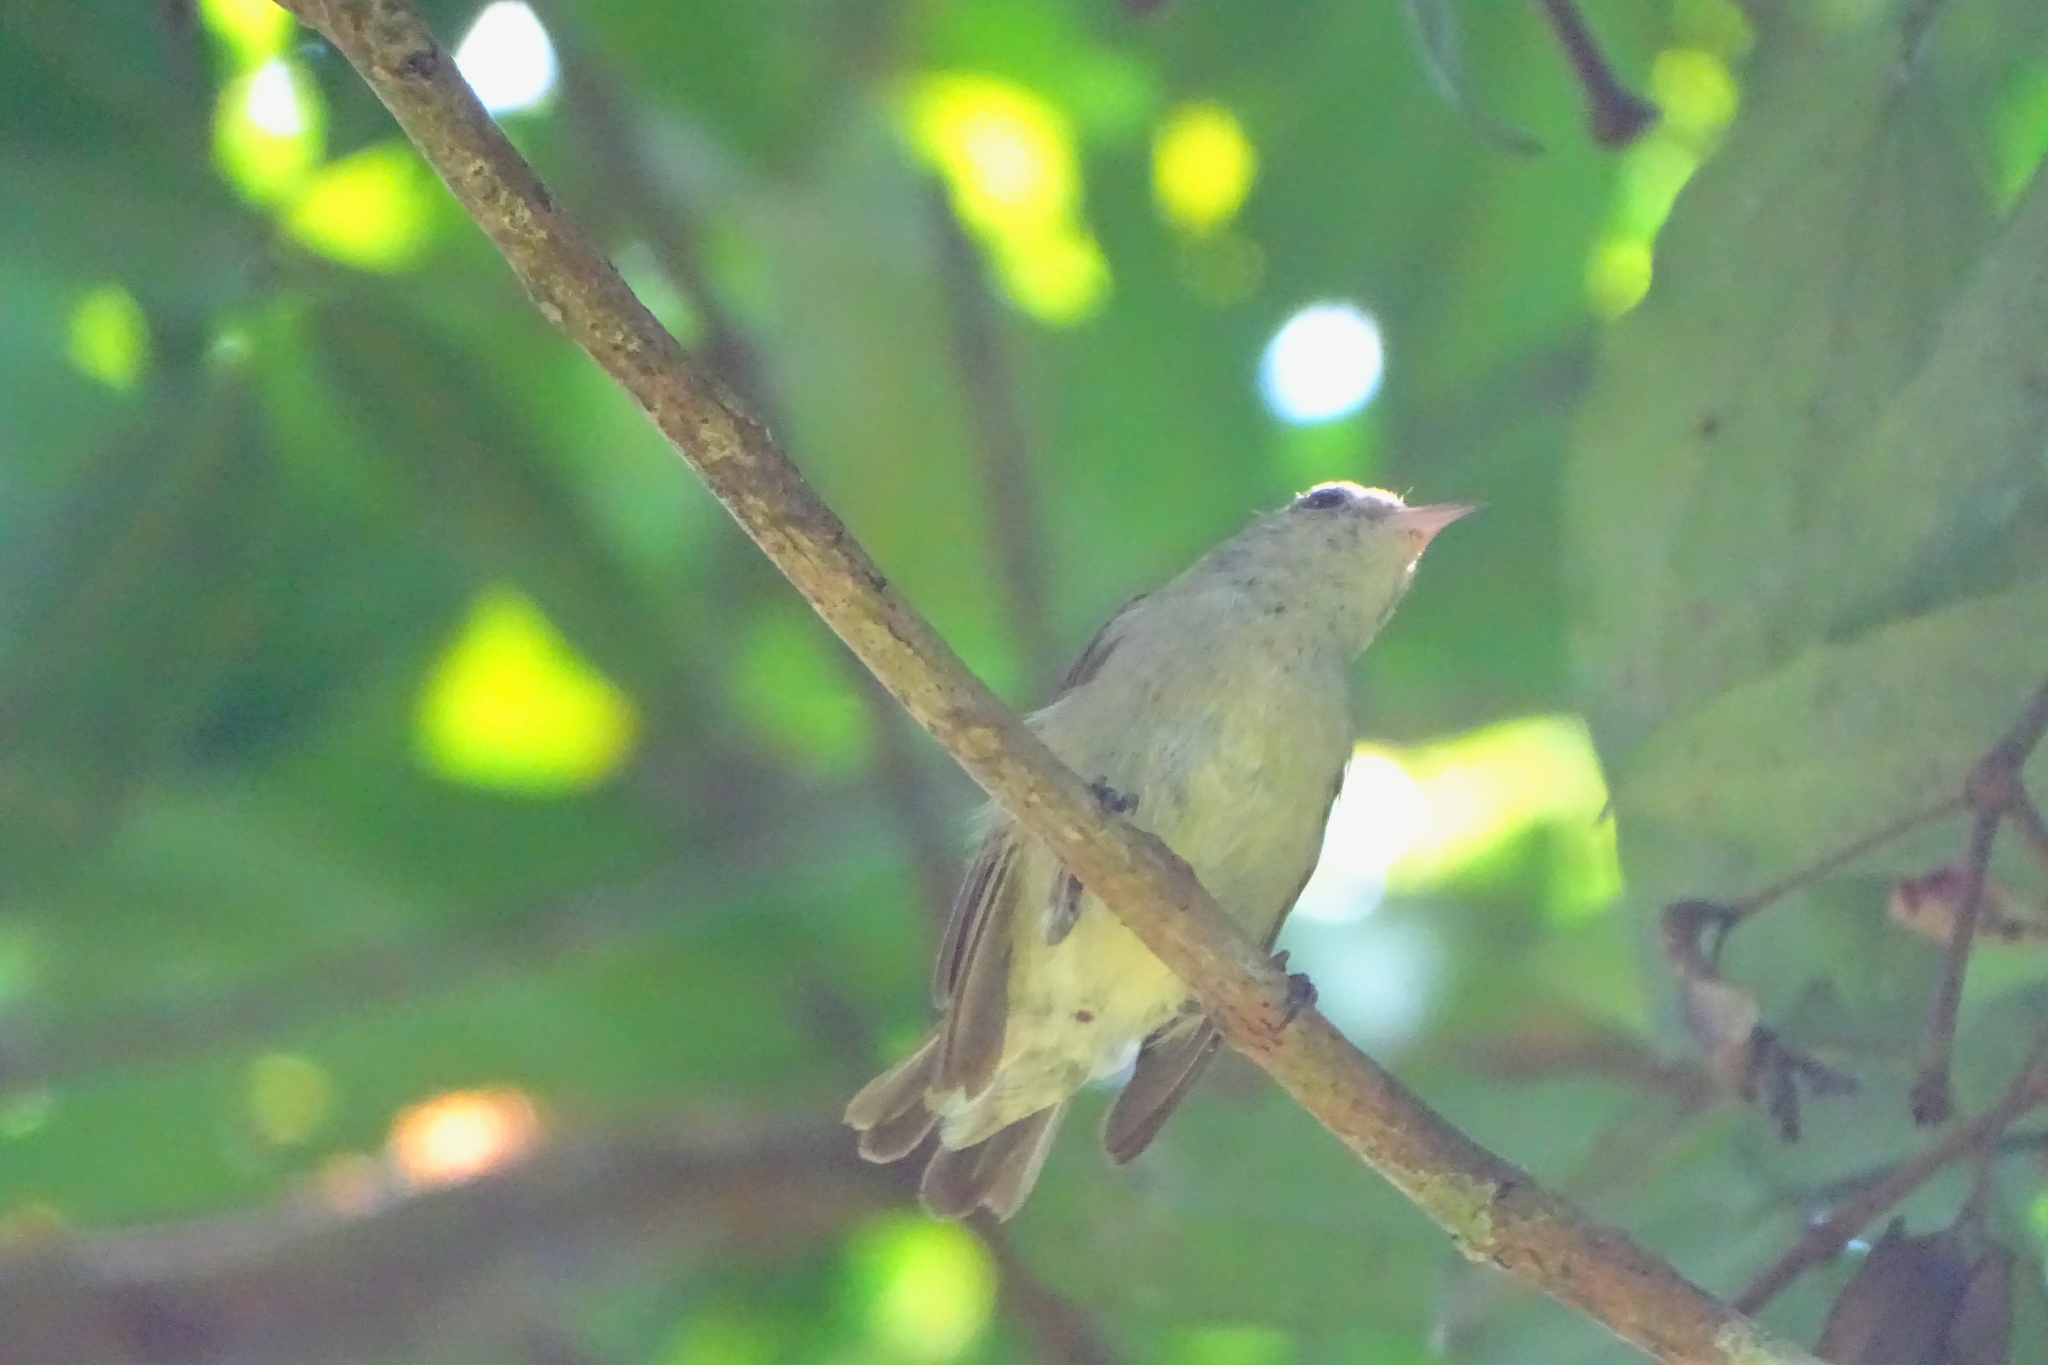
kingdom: Animalia
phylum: Chordata
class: Aves
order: Passeriformes
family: Dicaeidae
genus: Dicaeum
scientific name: Dicaeum erythrorhynchos
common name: Pale-billed flowerpecker
